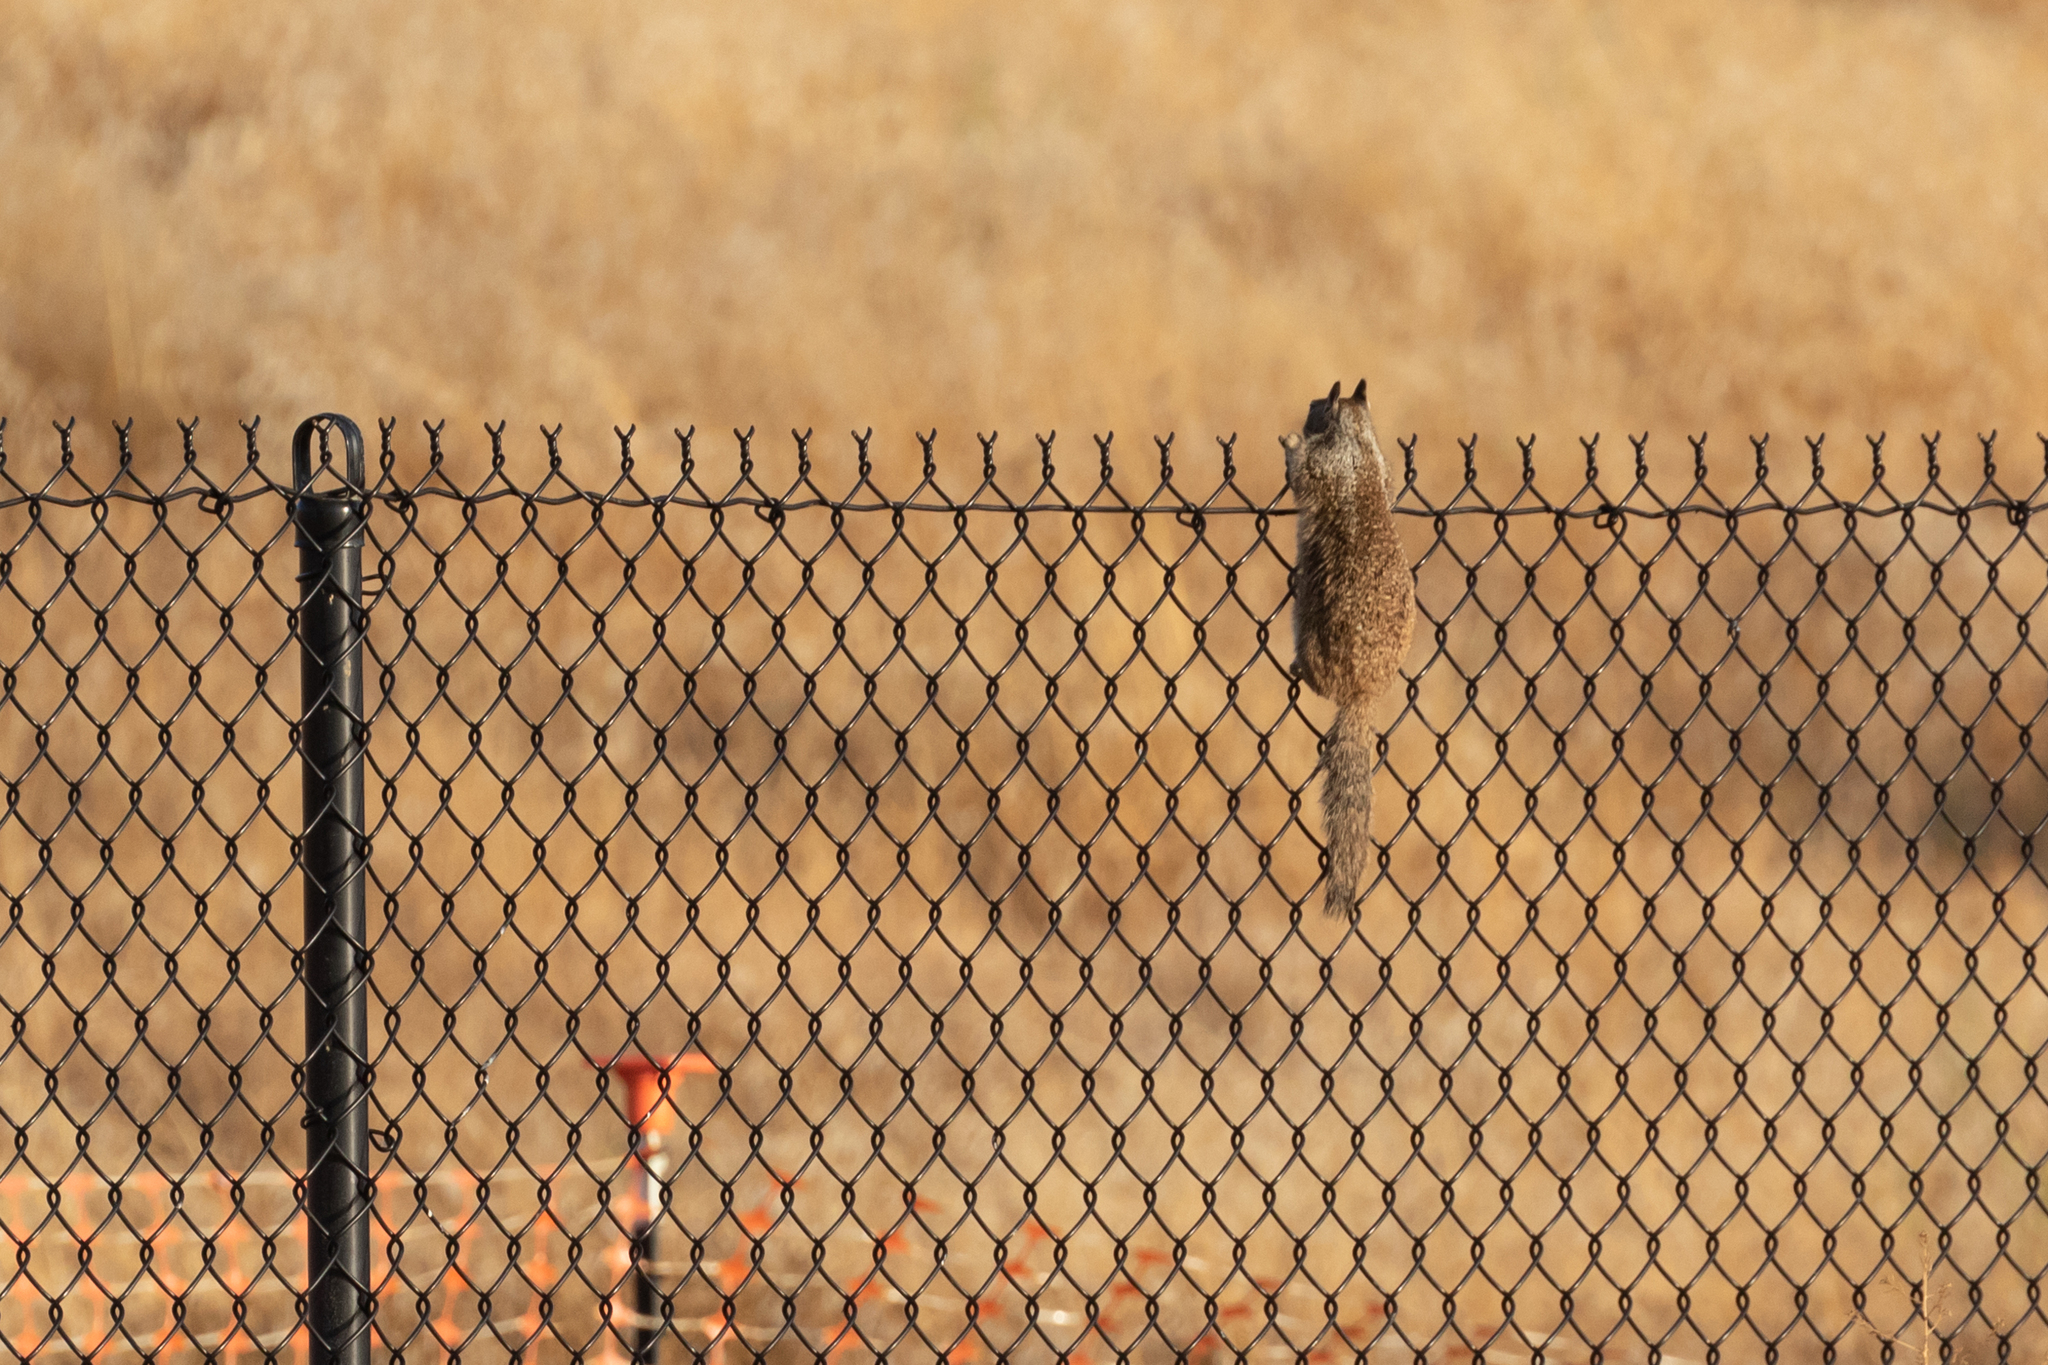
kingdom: Animalia
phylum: Chordata
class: Mammalia
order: Rodentia
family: Sciuridae
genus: Otospermophilus
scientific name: Otospermophilus beecheyi
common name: California ground squirrel
